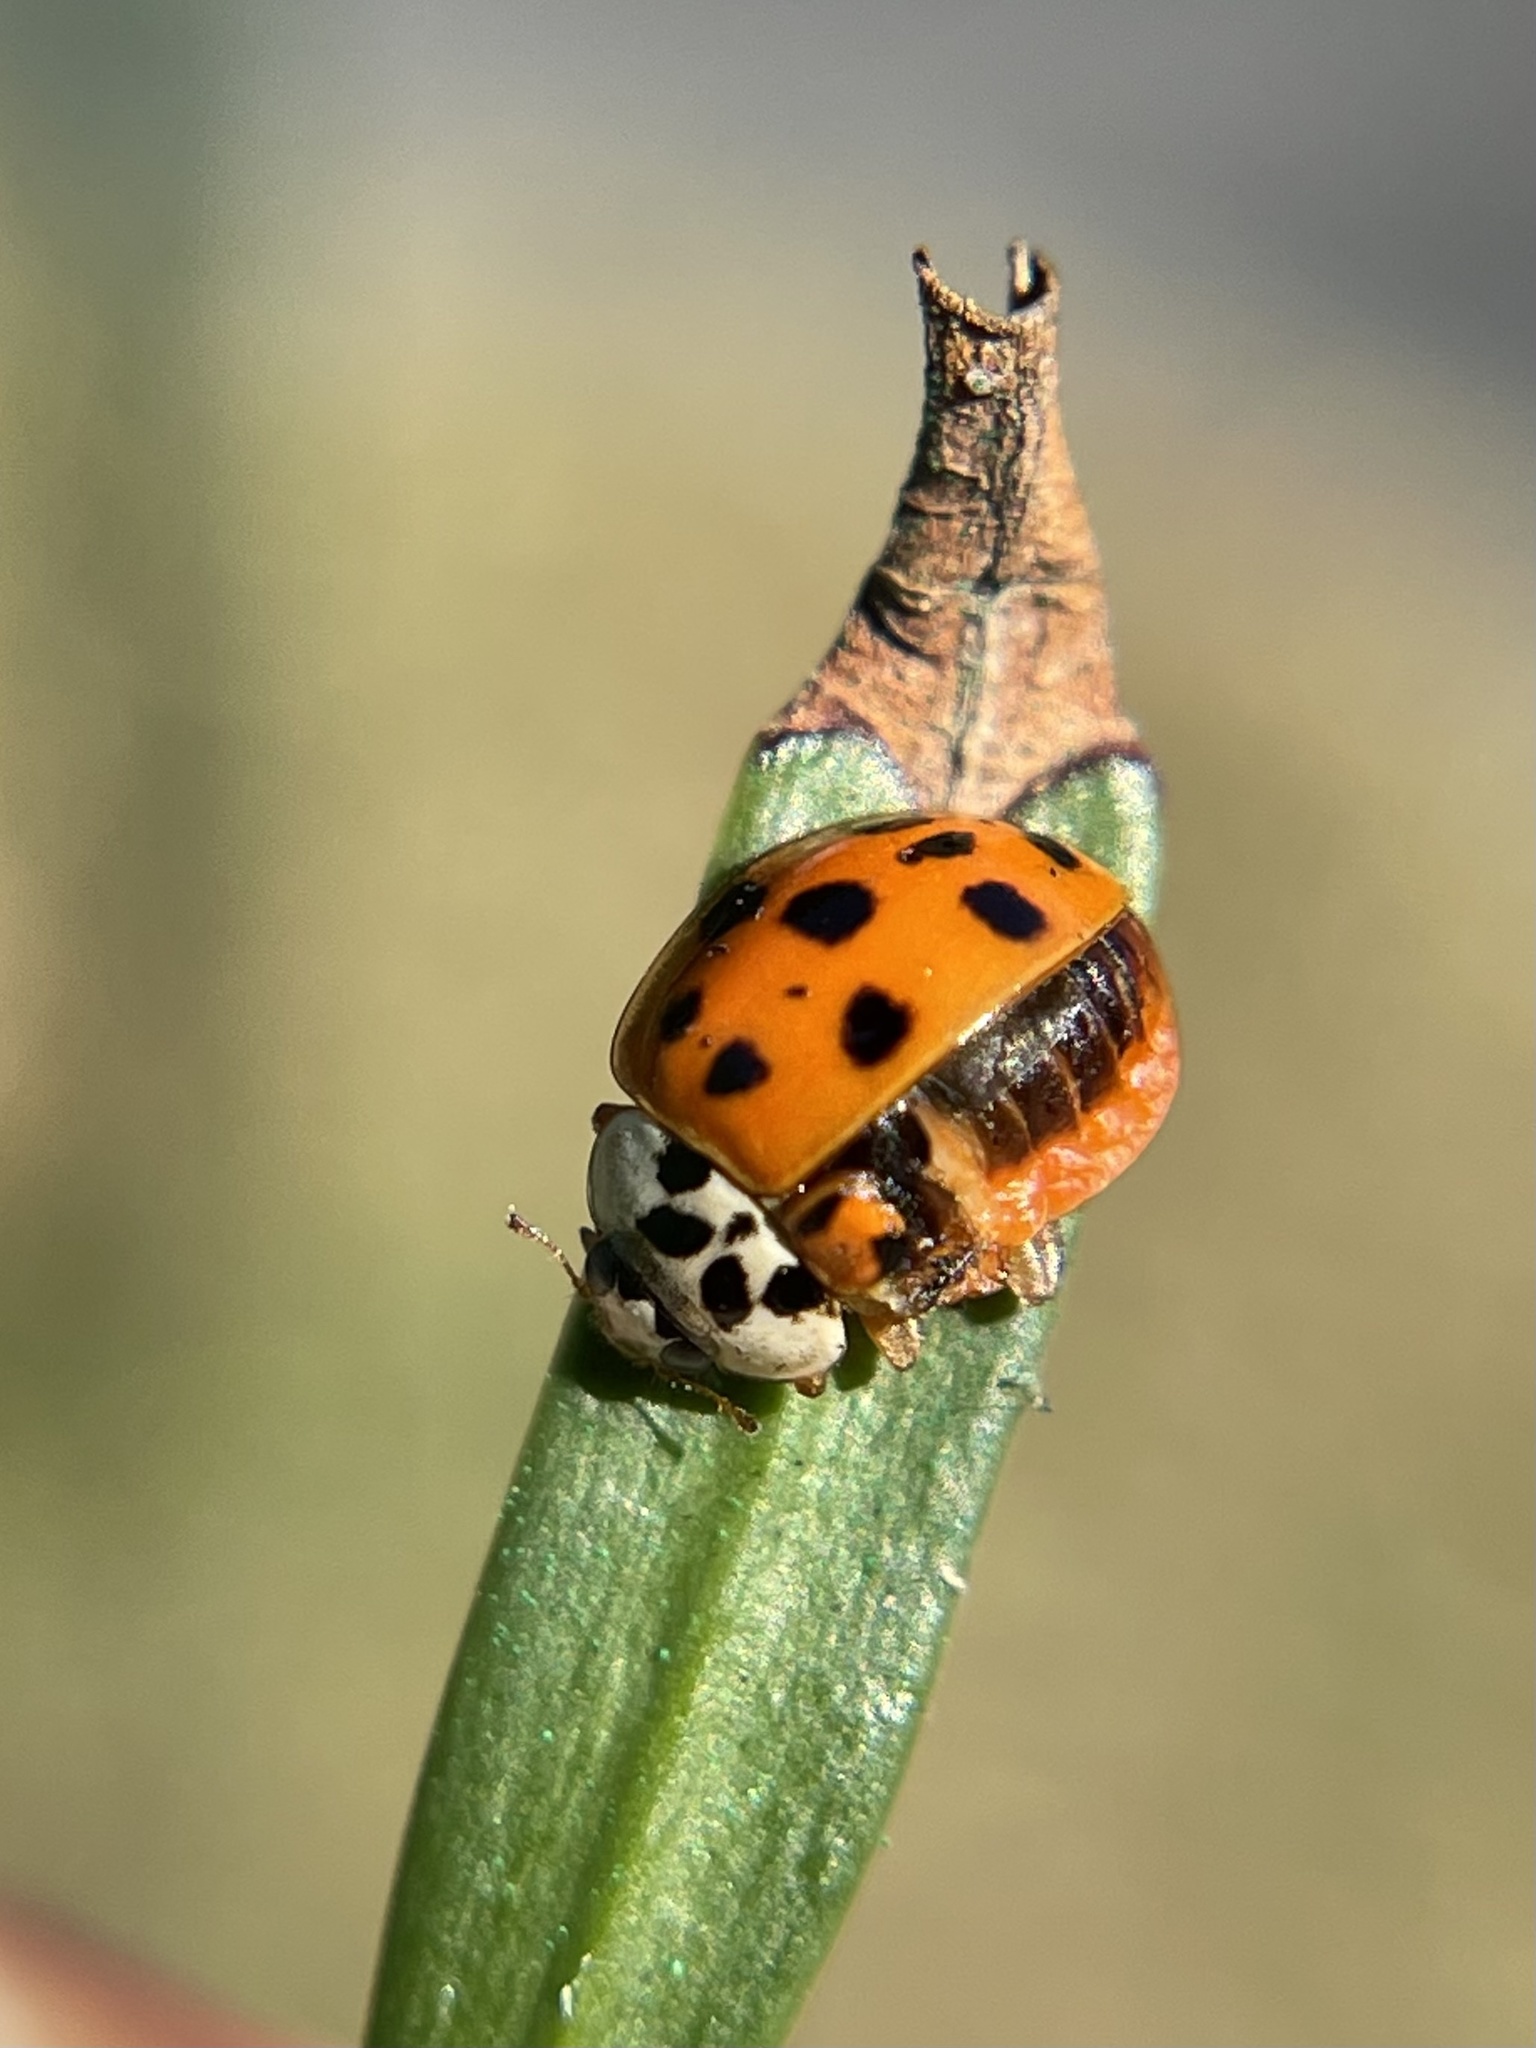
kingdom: Animalia
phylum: Arthropoda
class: Insecta
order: Coleoptera
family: Coccinellidae
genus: Harmonia
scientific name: Harmonia axyridis
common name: Harlequin ladybird
